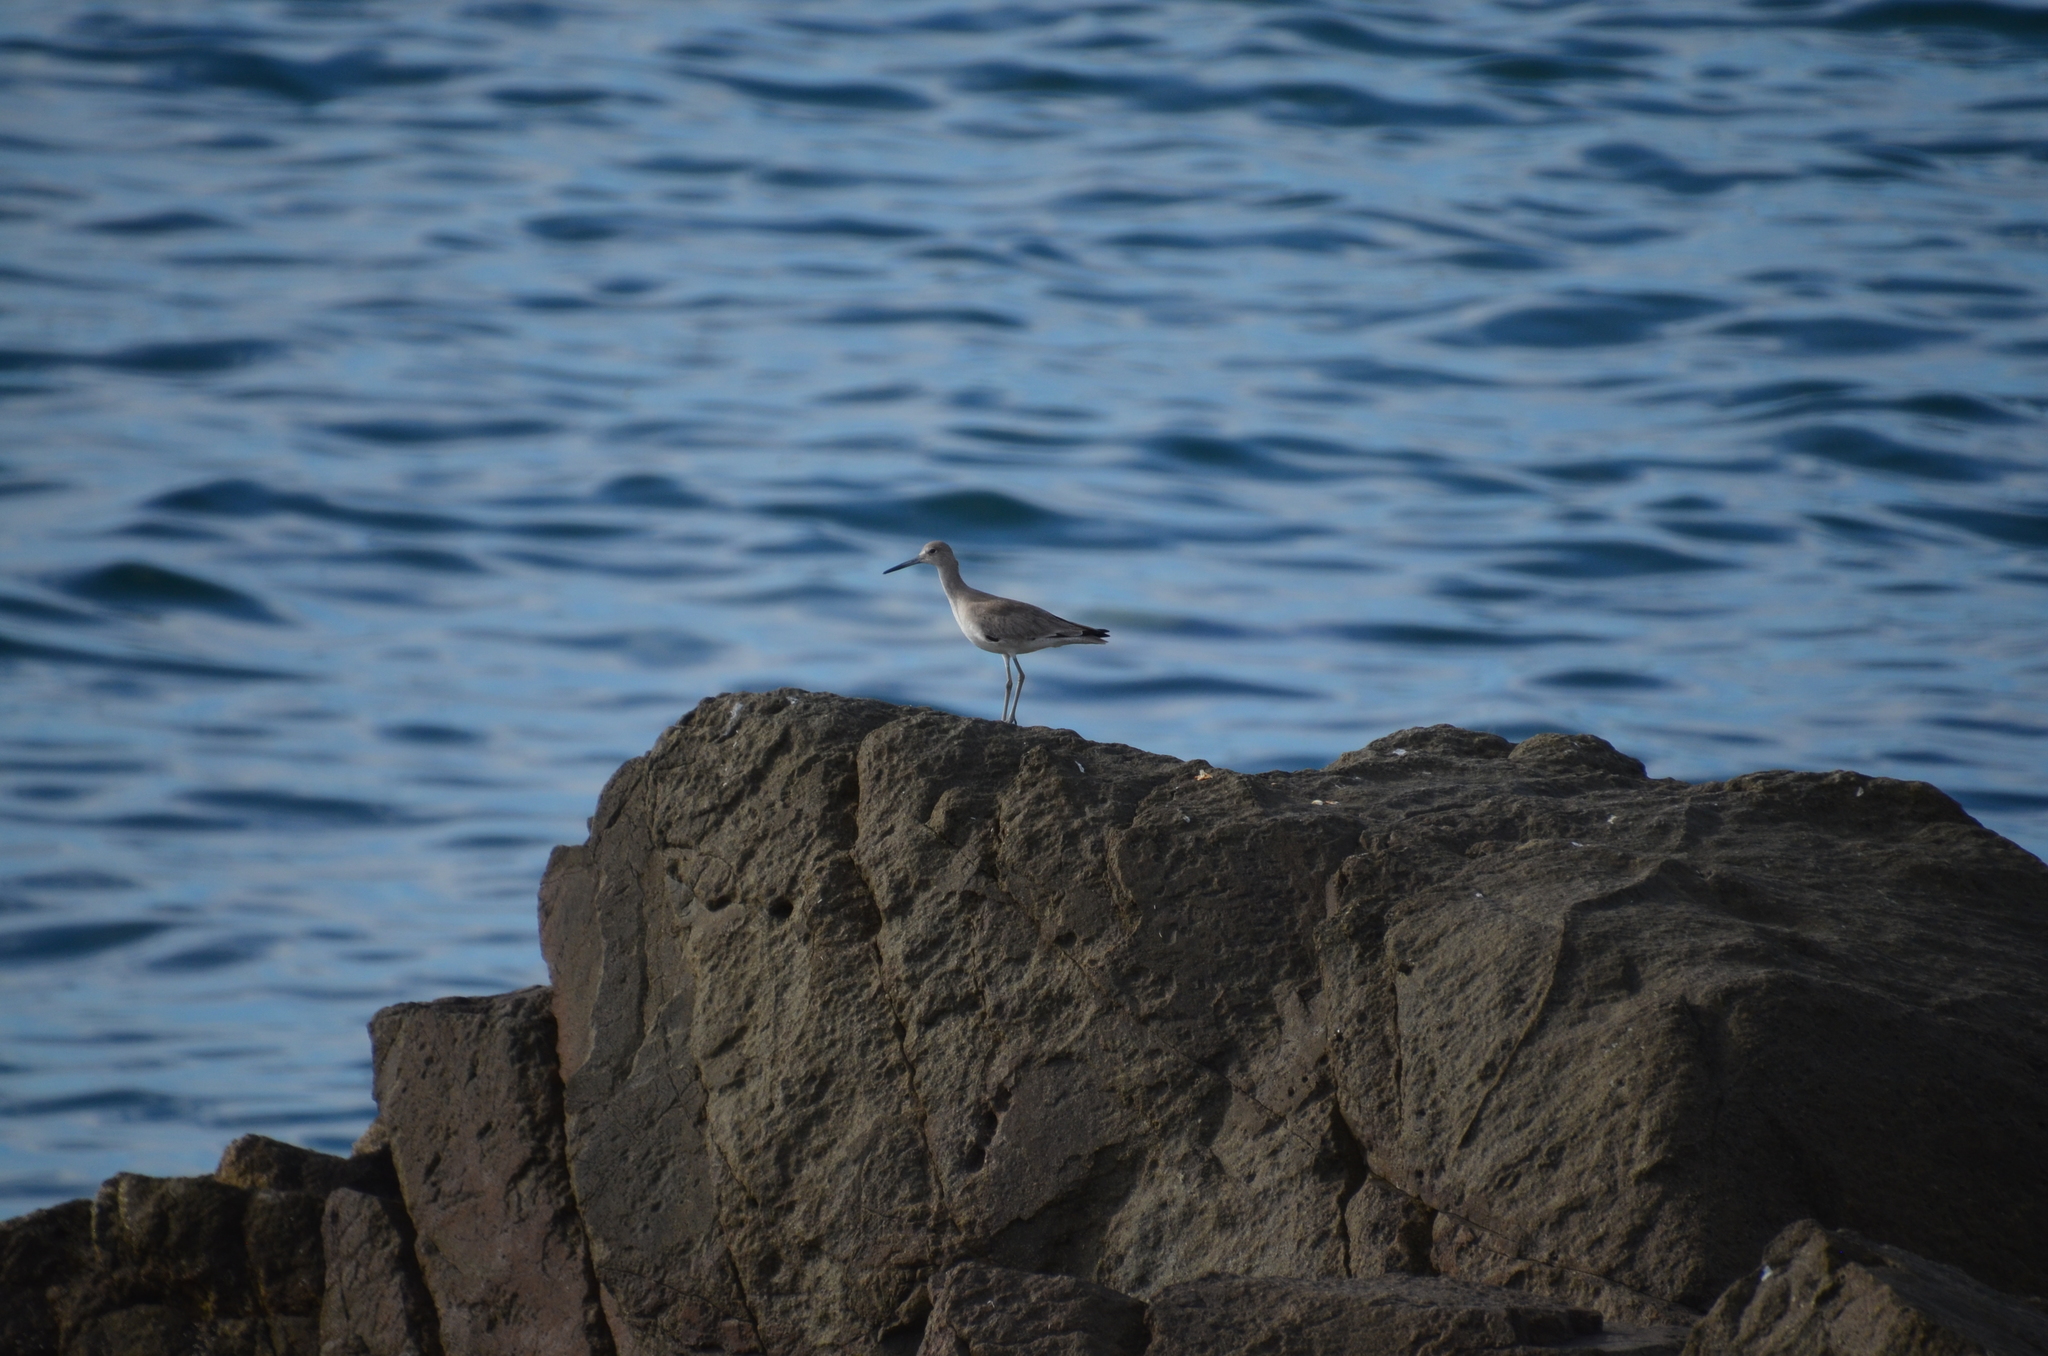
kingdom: Animalia
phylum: Chordata
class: Aves
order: Charadriiformes
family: Scolopacidae
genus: Tringa
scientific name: Tringa semipalmata
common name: Willet
